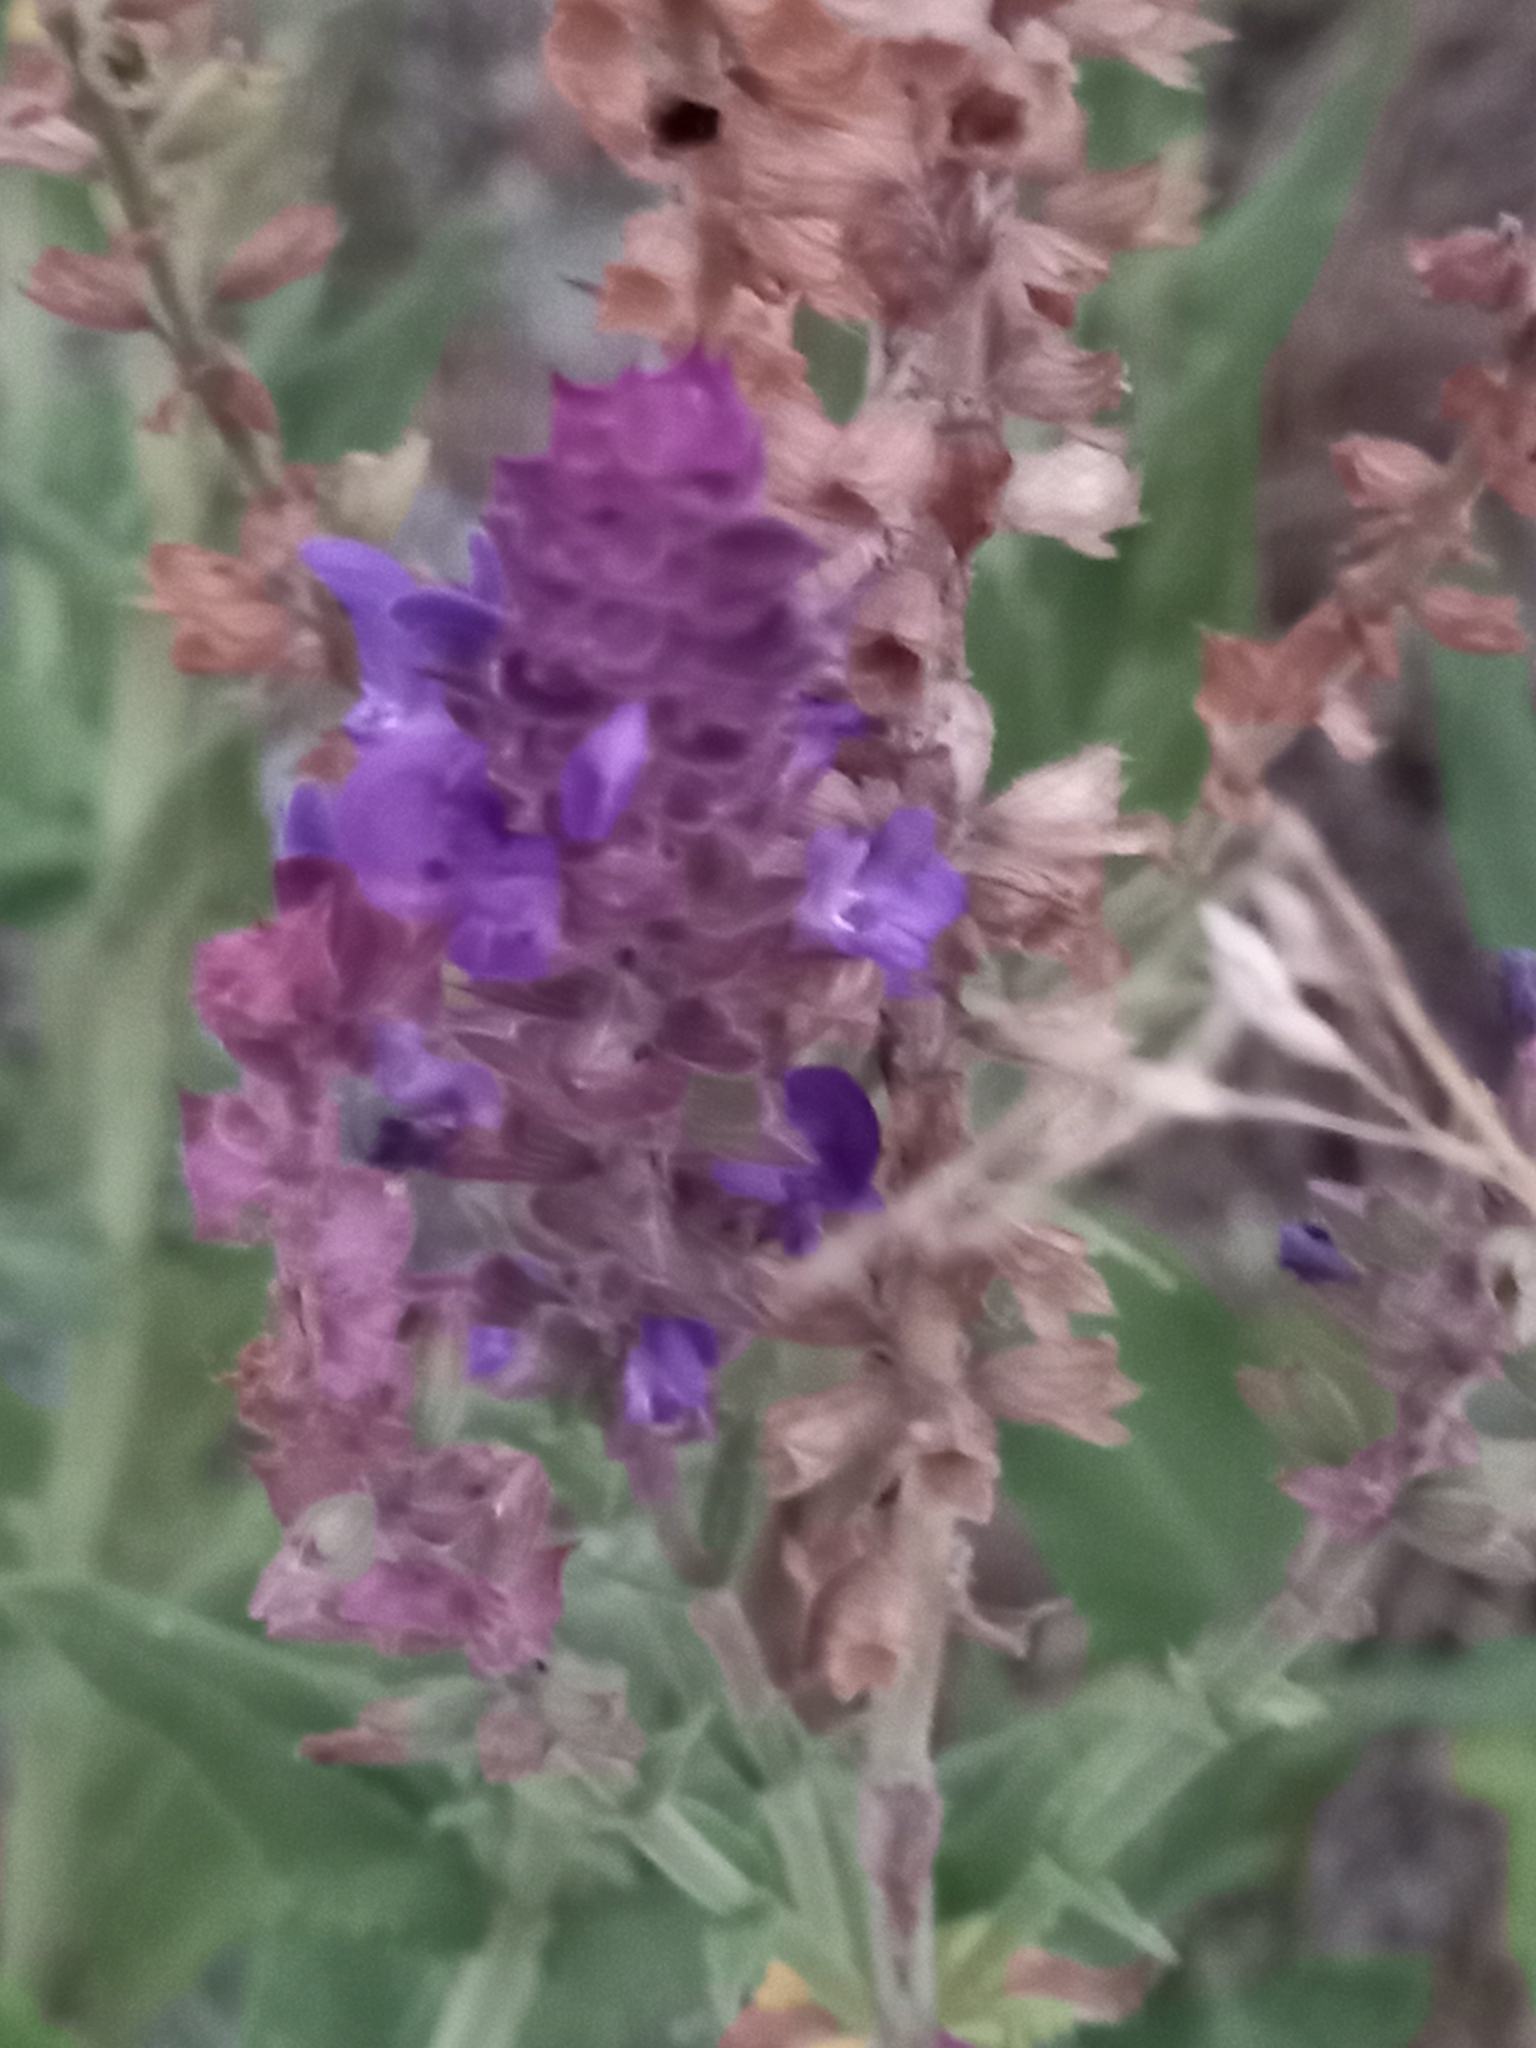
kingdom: Plantae
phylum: Tracheophyta
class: Magnoliopsida
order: Lamiales
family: Lamiaceae
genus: Salvia
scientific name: Salvia nemorosa
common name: Balkan clary
